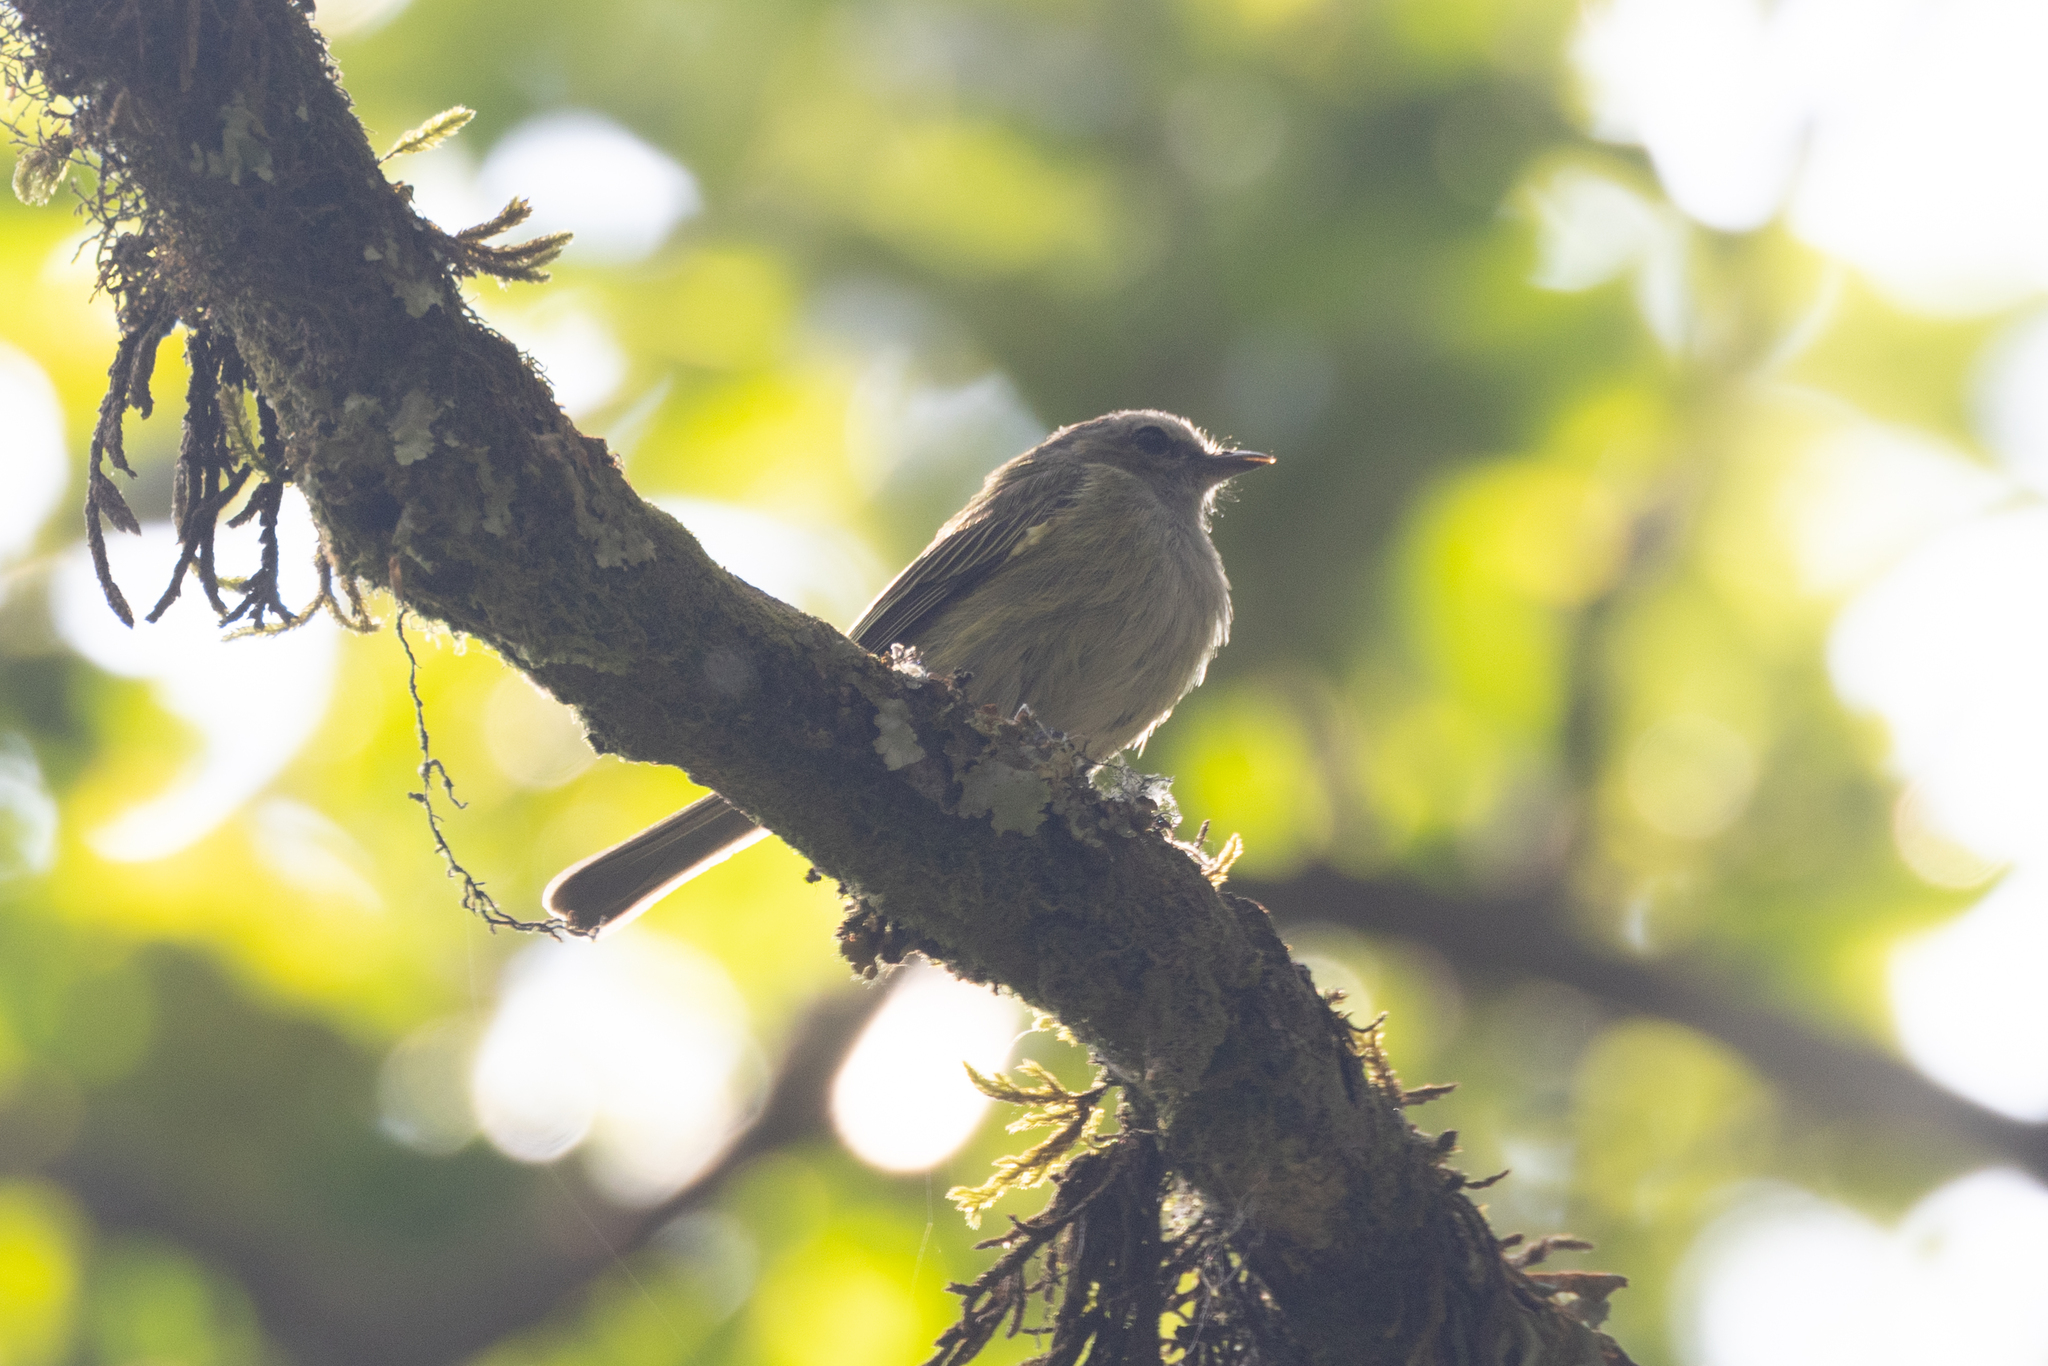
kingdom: Animalia
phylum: Chordata
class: Aves
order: Passeriformes
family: Tyrannidae
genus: Zimmerius
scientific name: Zimmerius vilissimus
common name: Paltry tyrannulet
